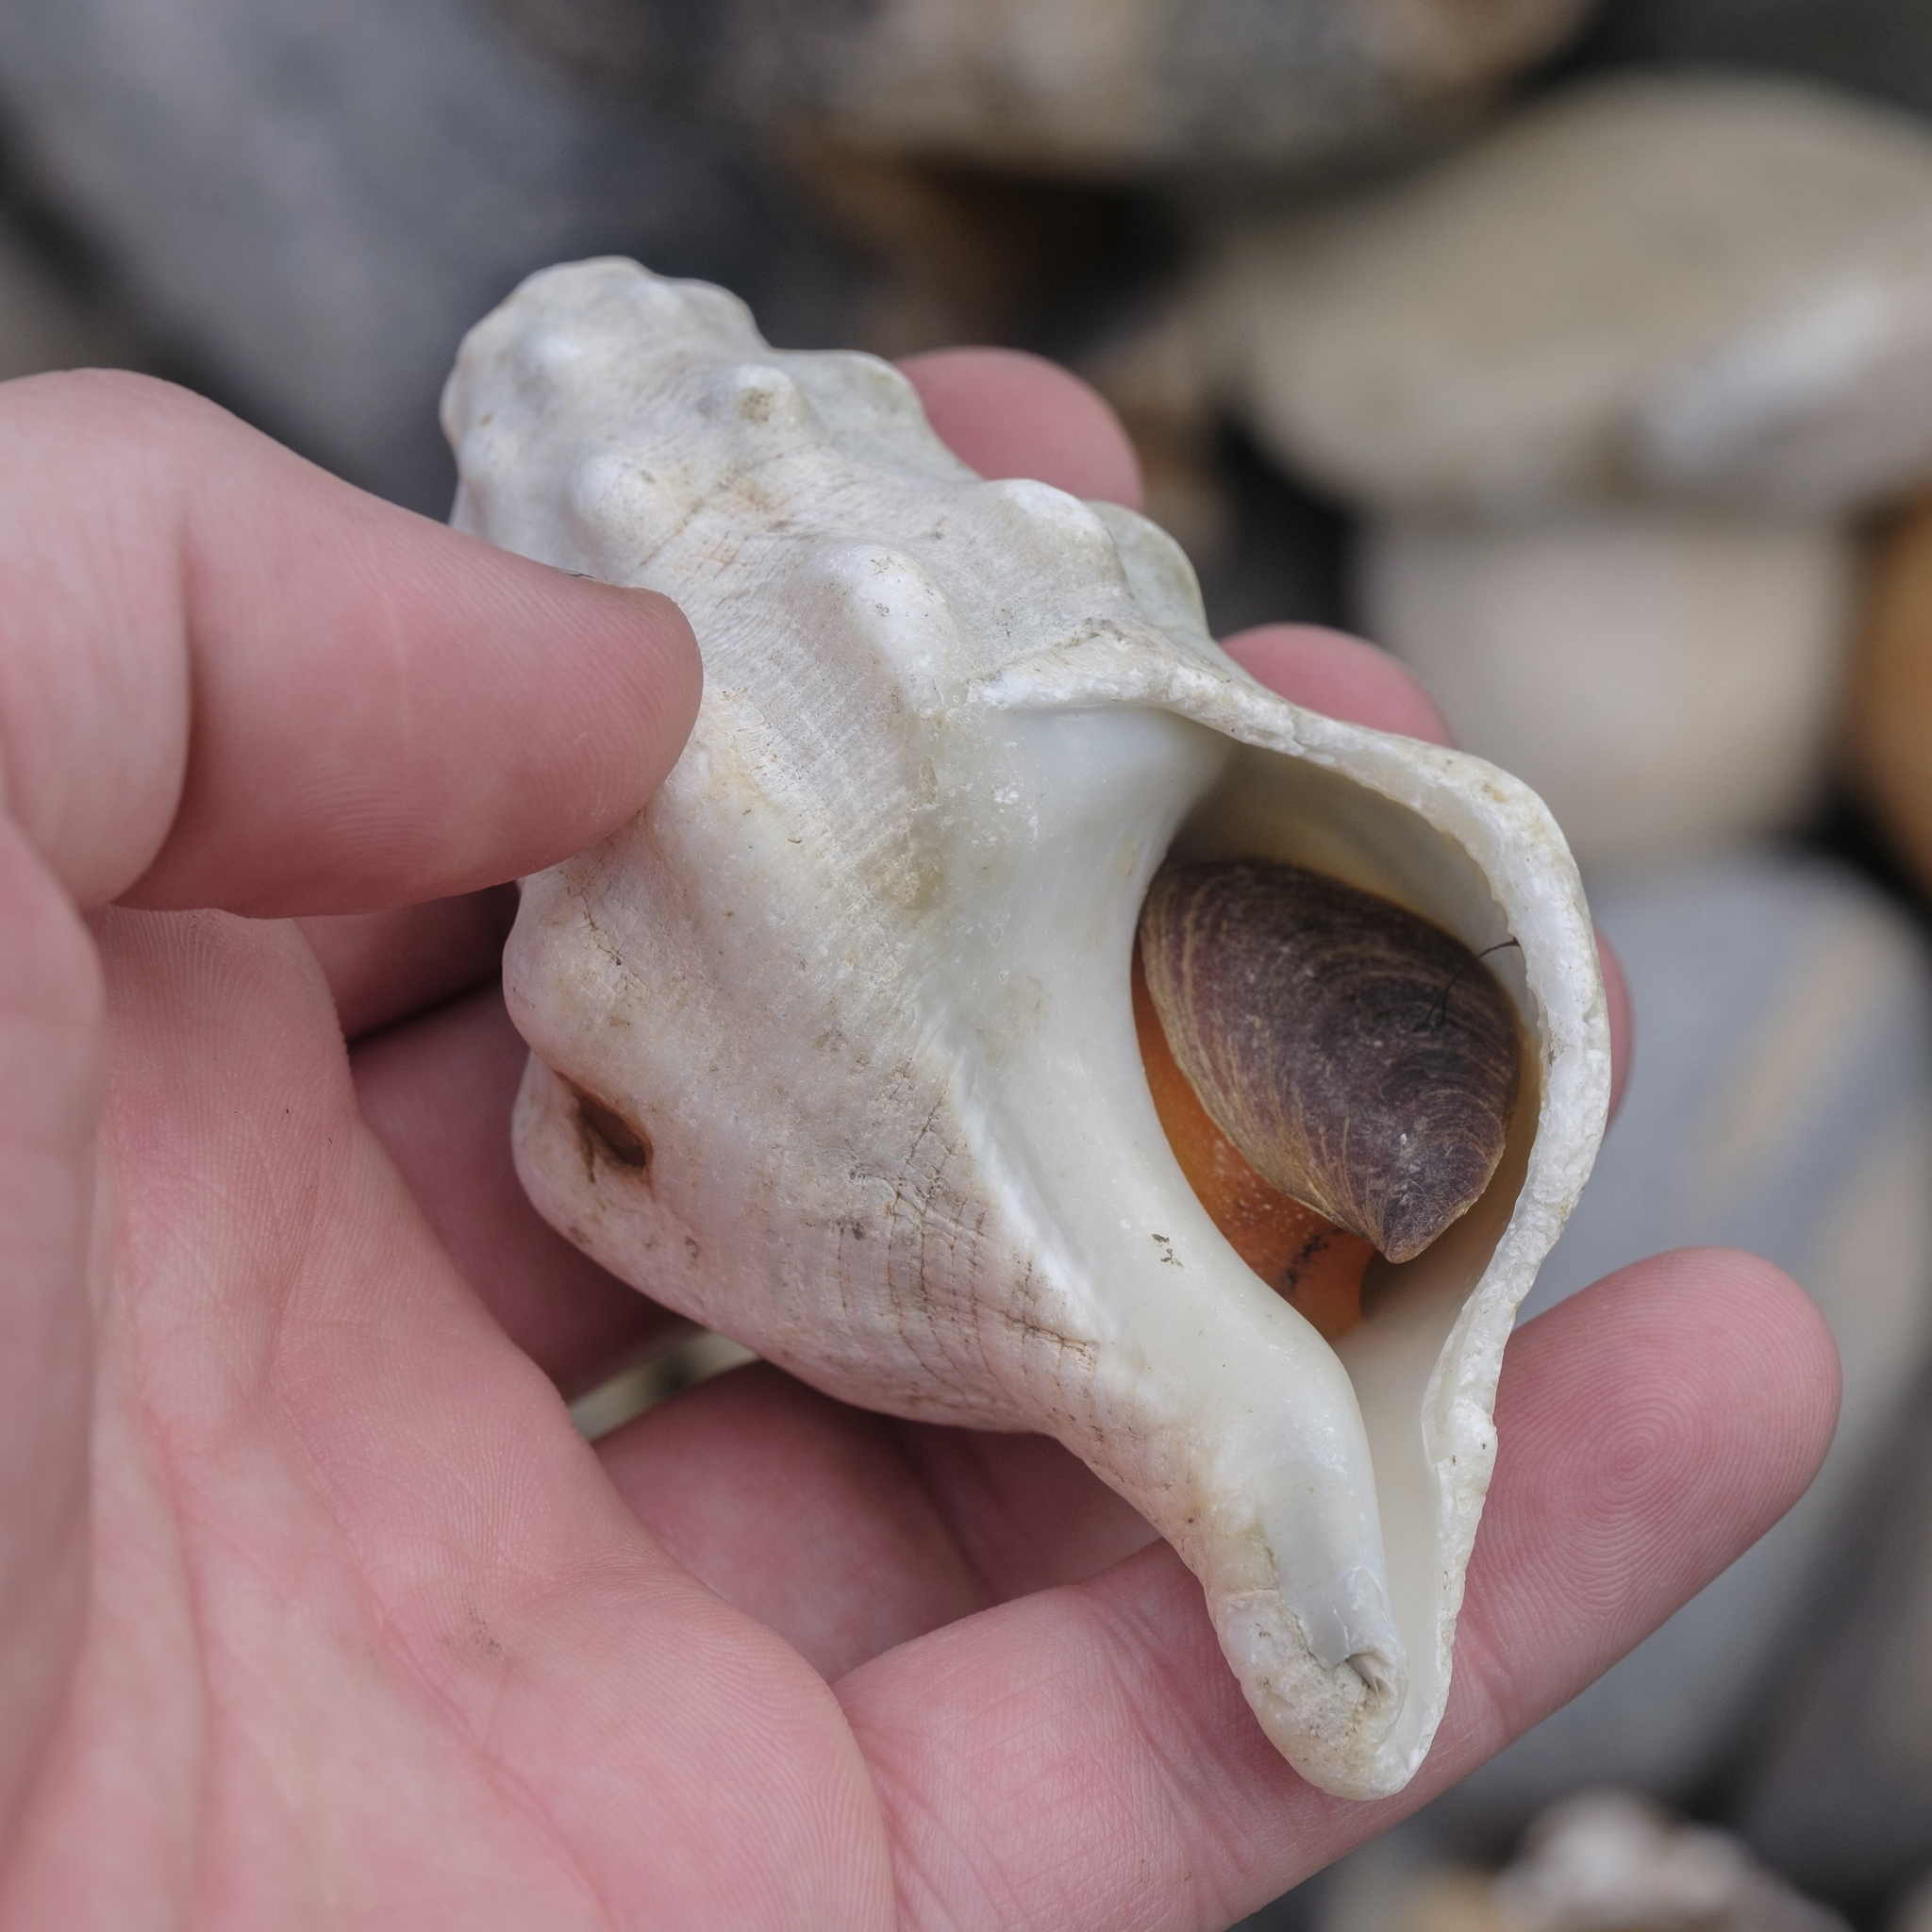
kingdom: Animalia
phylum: Mollusca
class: Gastropoda
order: Neogastropoda
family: Austrosiphonidae
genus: Kelletia
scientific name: Kelletia kelletii
